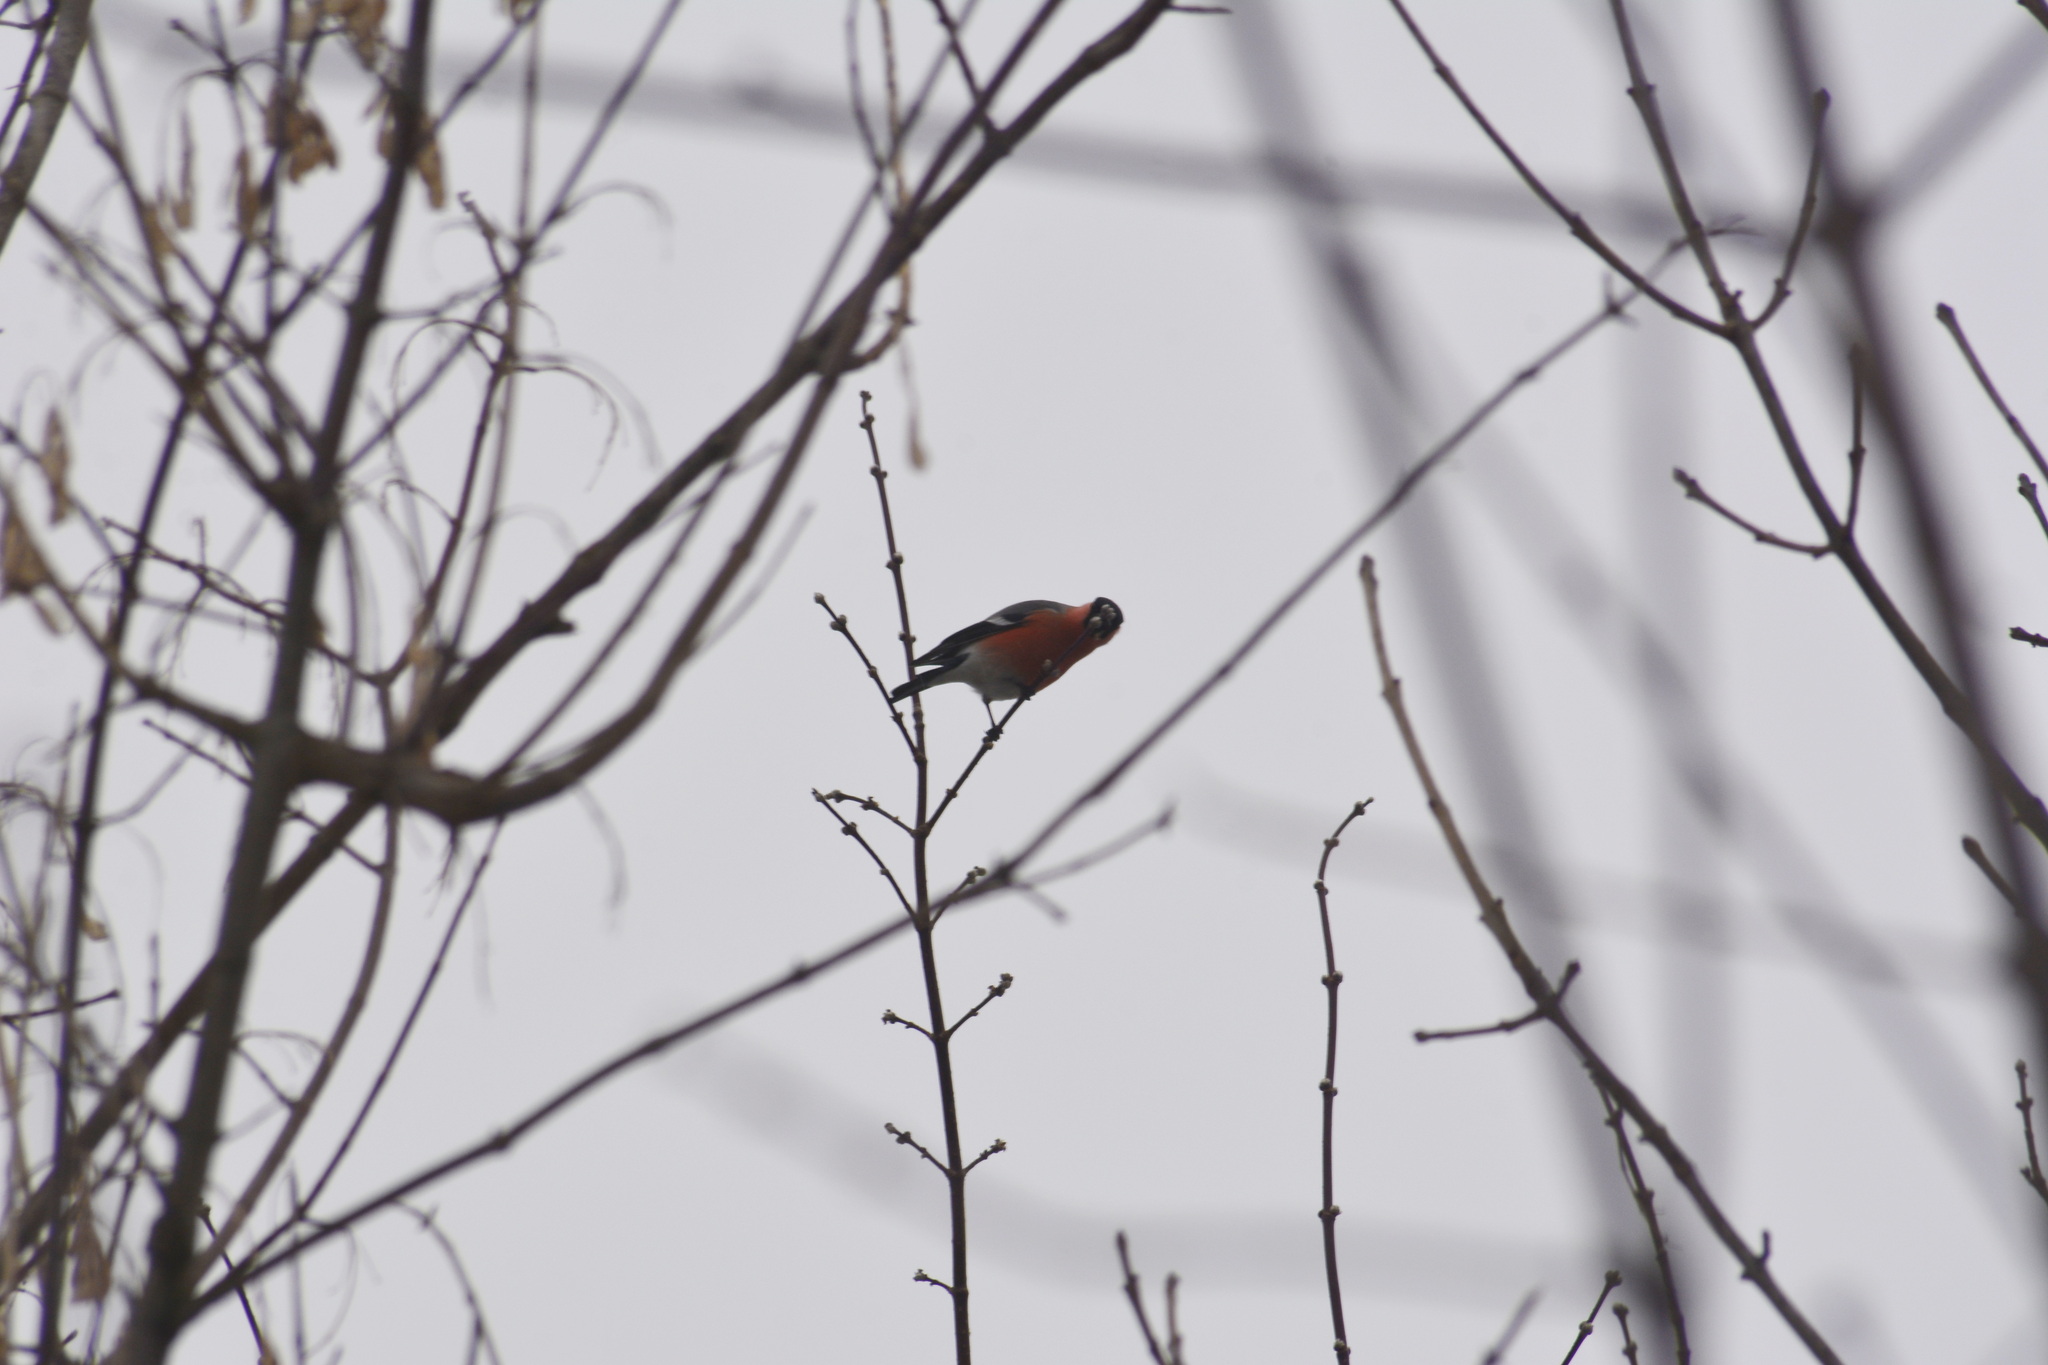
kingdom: Animalia
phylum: Chordata
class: Aves
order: Passeriformes
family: Fringillidae
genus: Pyrrhula
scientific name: Pyrrhula pyrrhula
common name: Eurasian bullfinch
